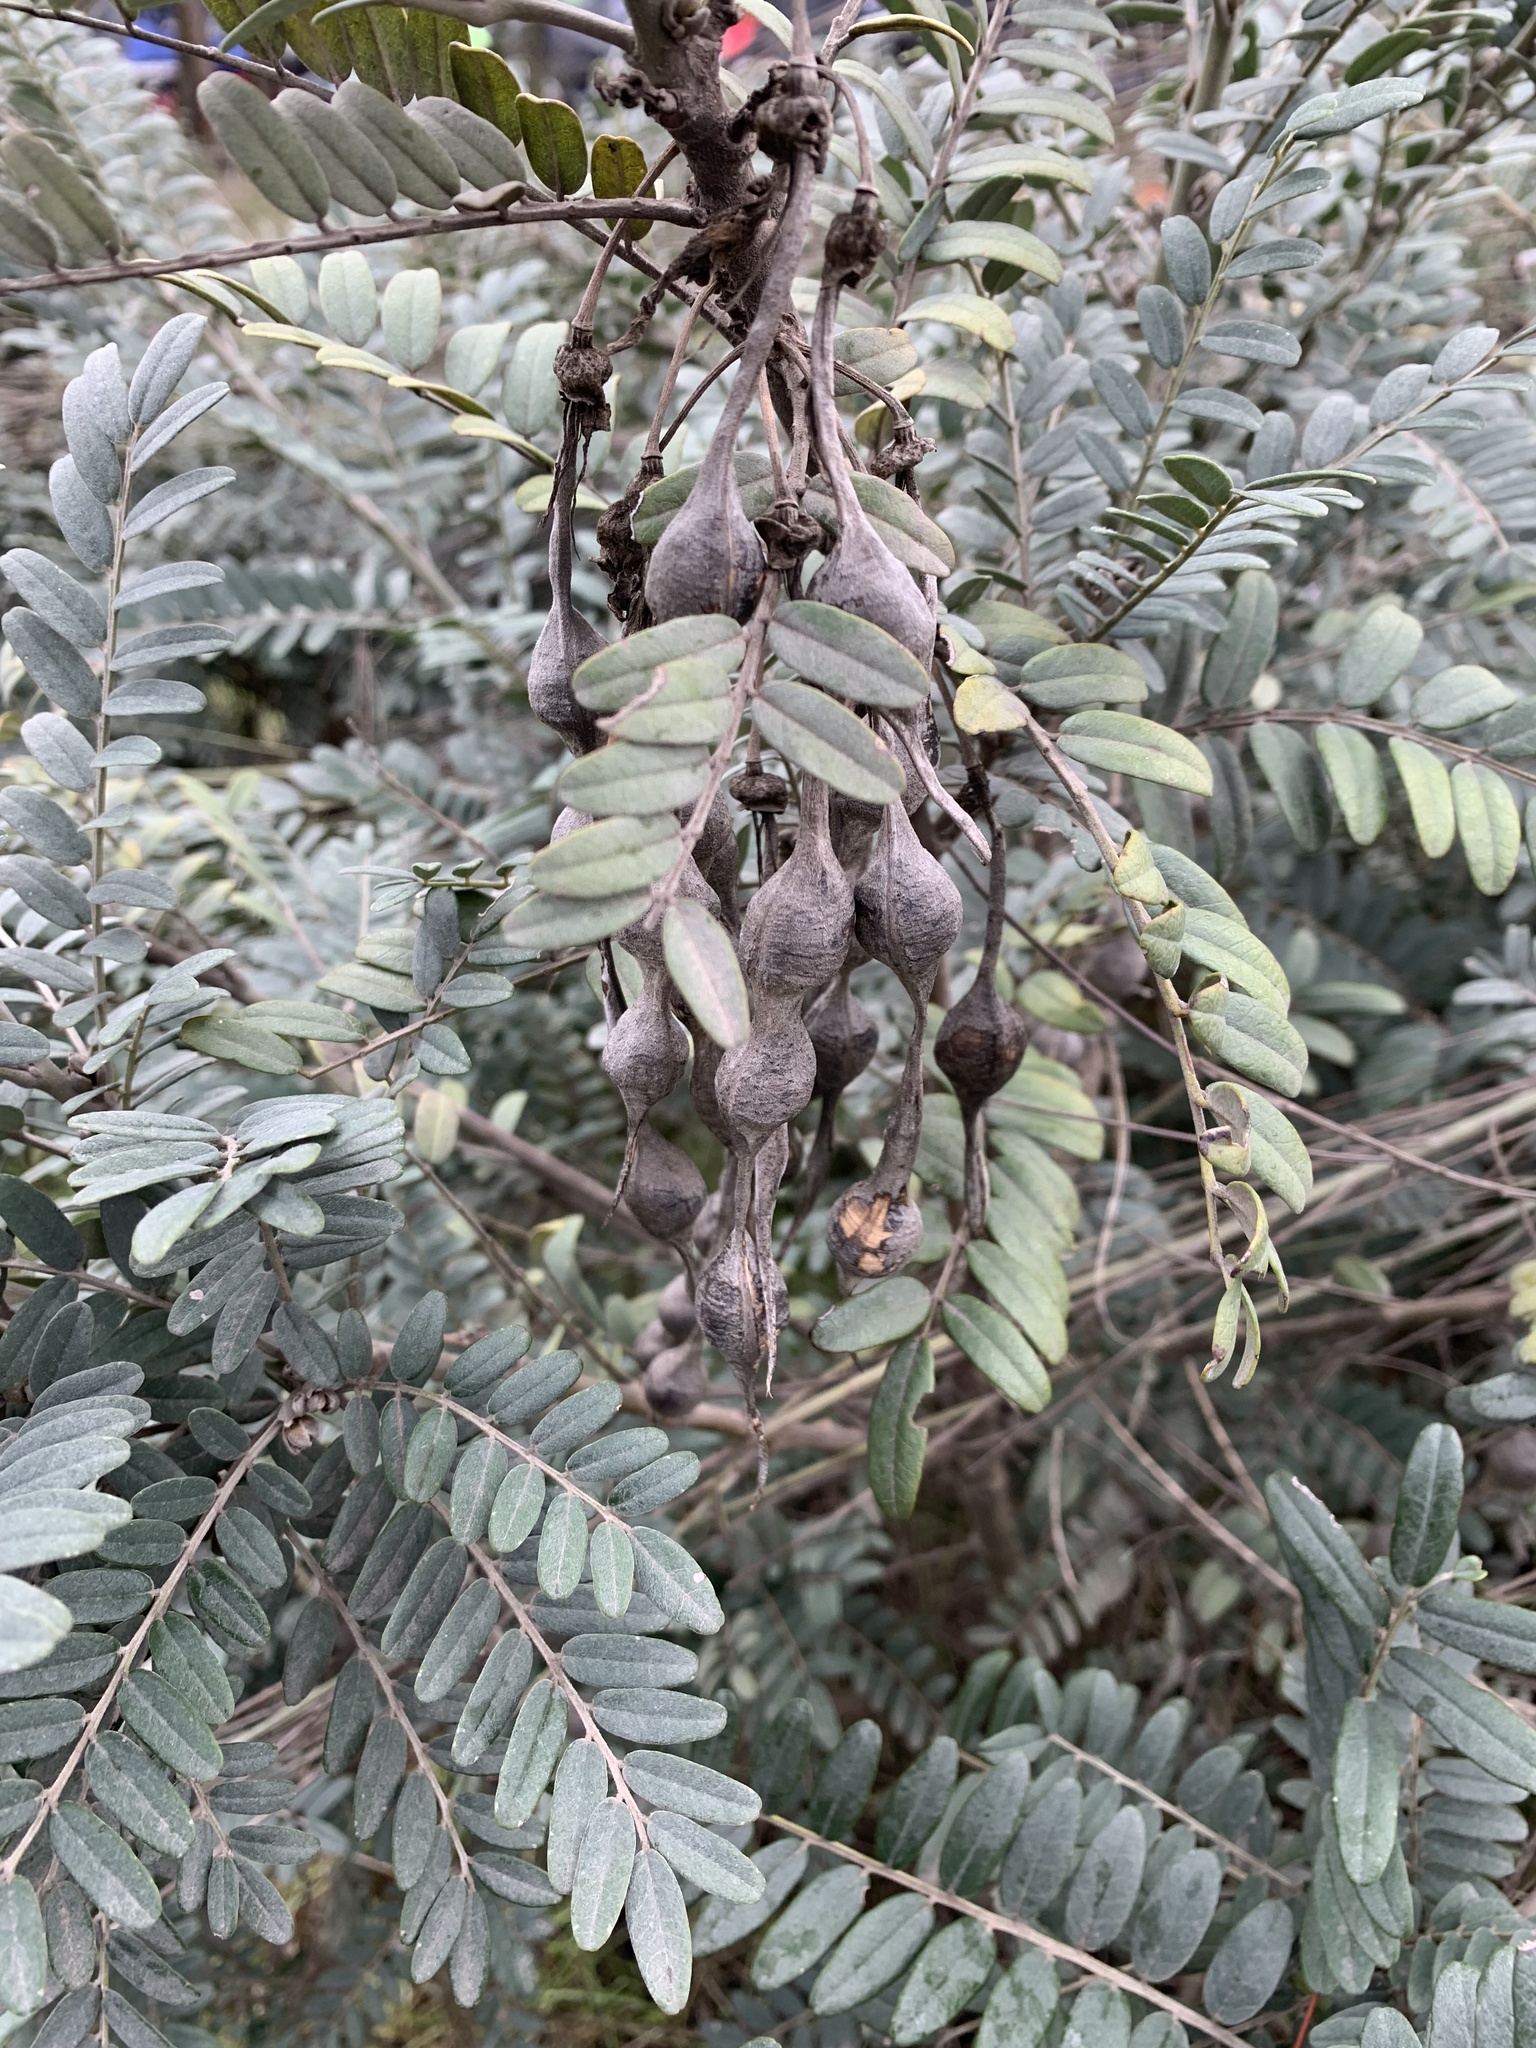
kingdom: Plantae
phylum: Tracheophyta
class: Magnoliopsida
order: Fabales
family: Fabaceae
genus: Sophora
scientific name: Sophora macrocarpa
